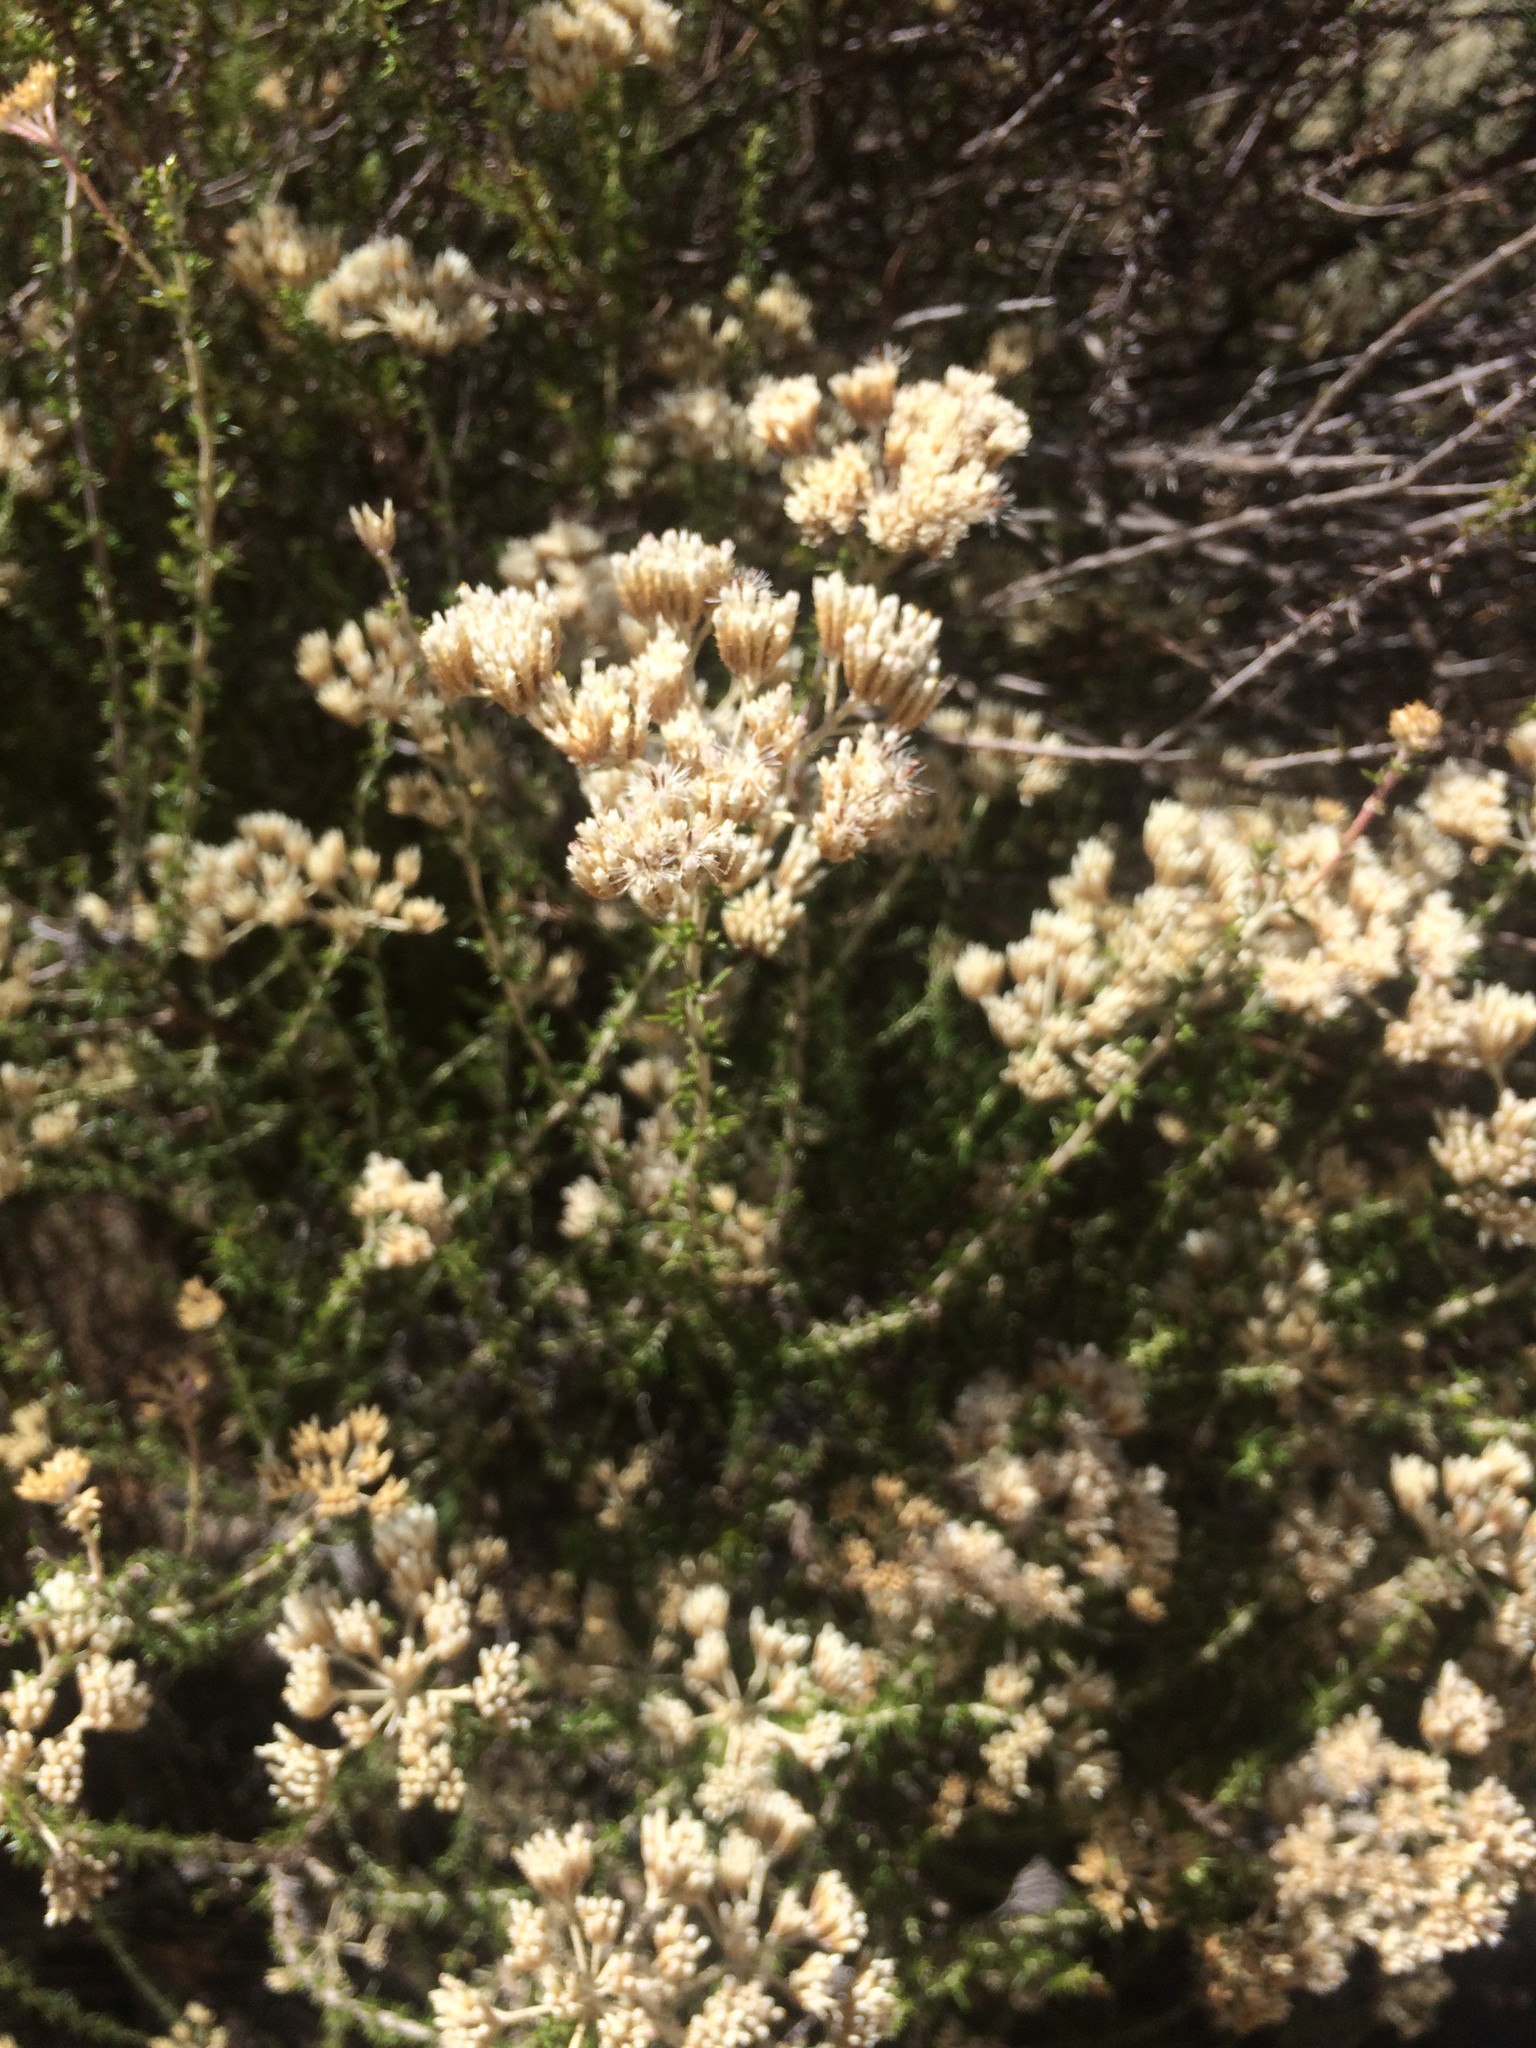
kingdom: Plantae
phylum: Tracheophyta
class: Magnoliopsida
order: Asterales
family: Asteraceae
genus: Metalasia
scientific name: Metalasia densa
